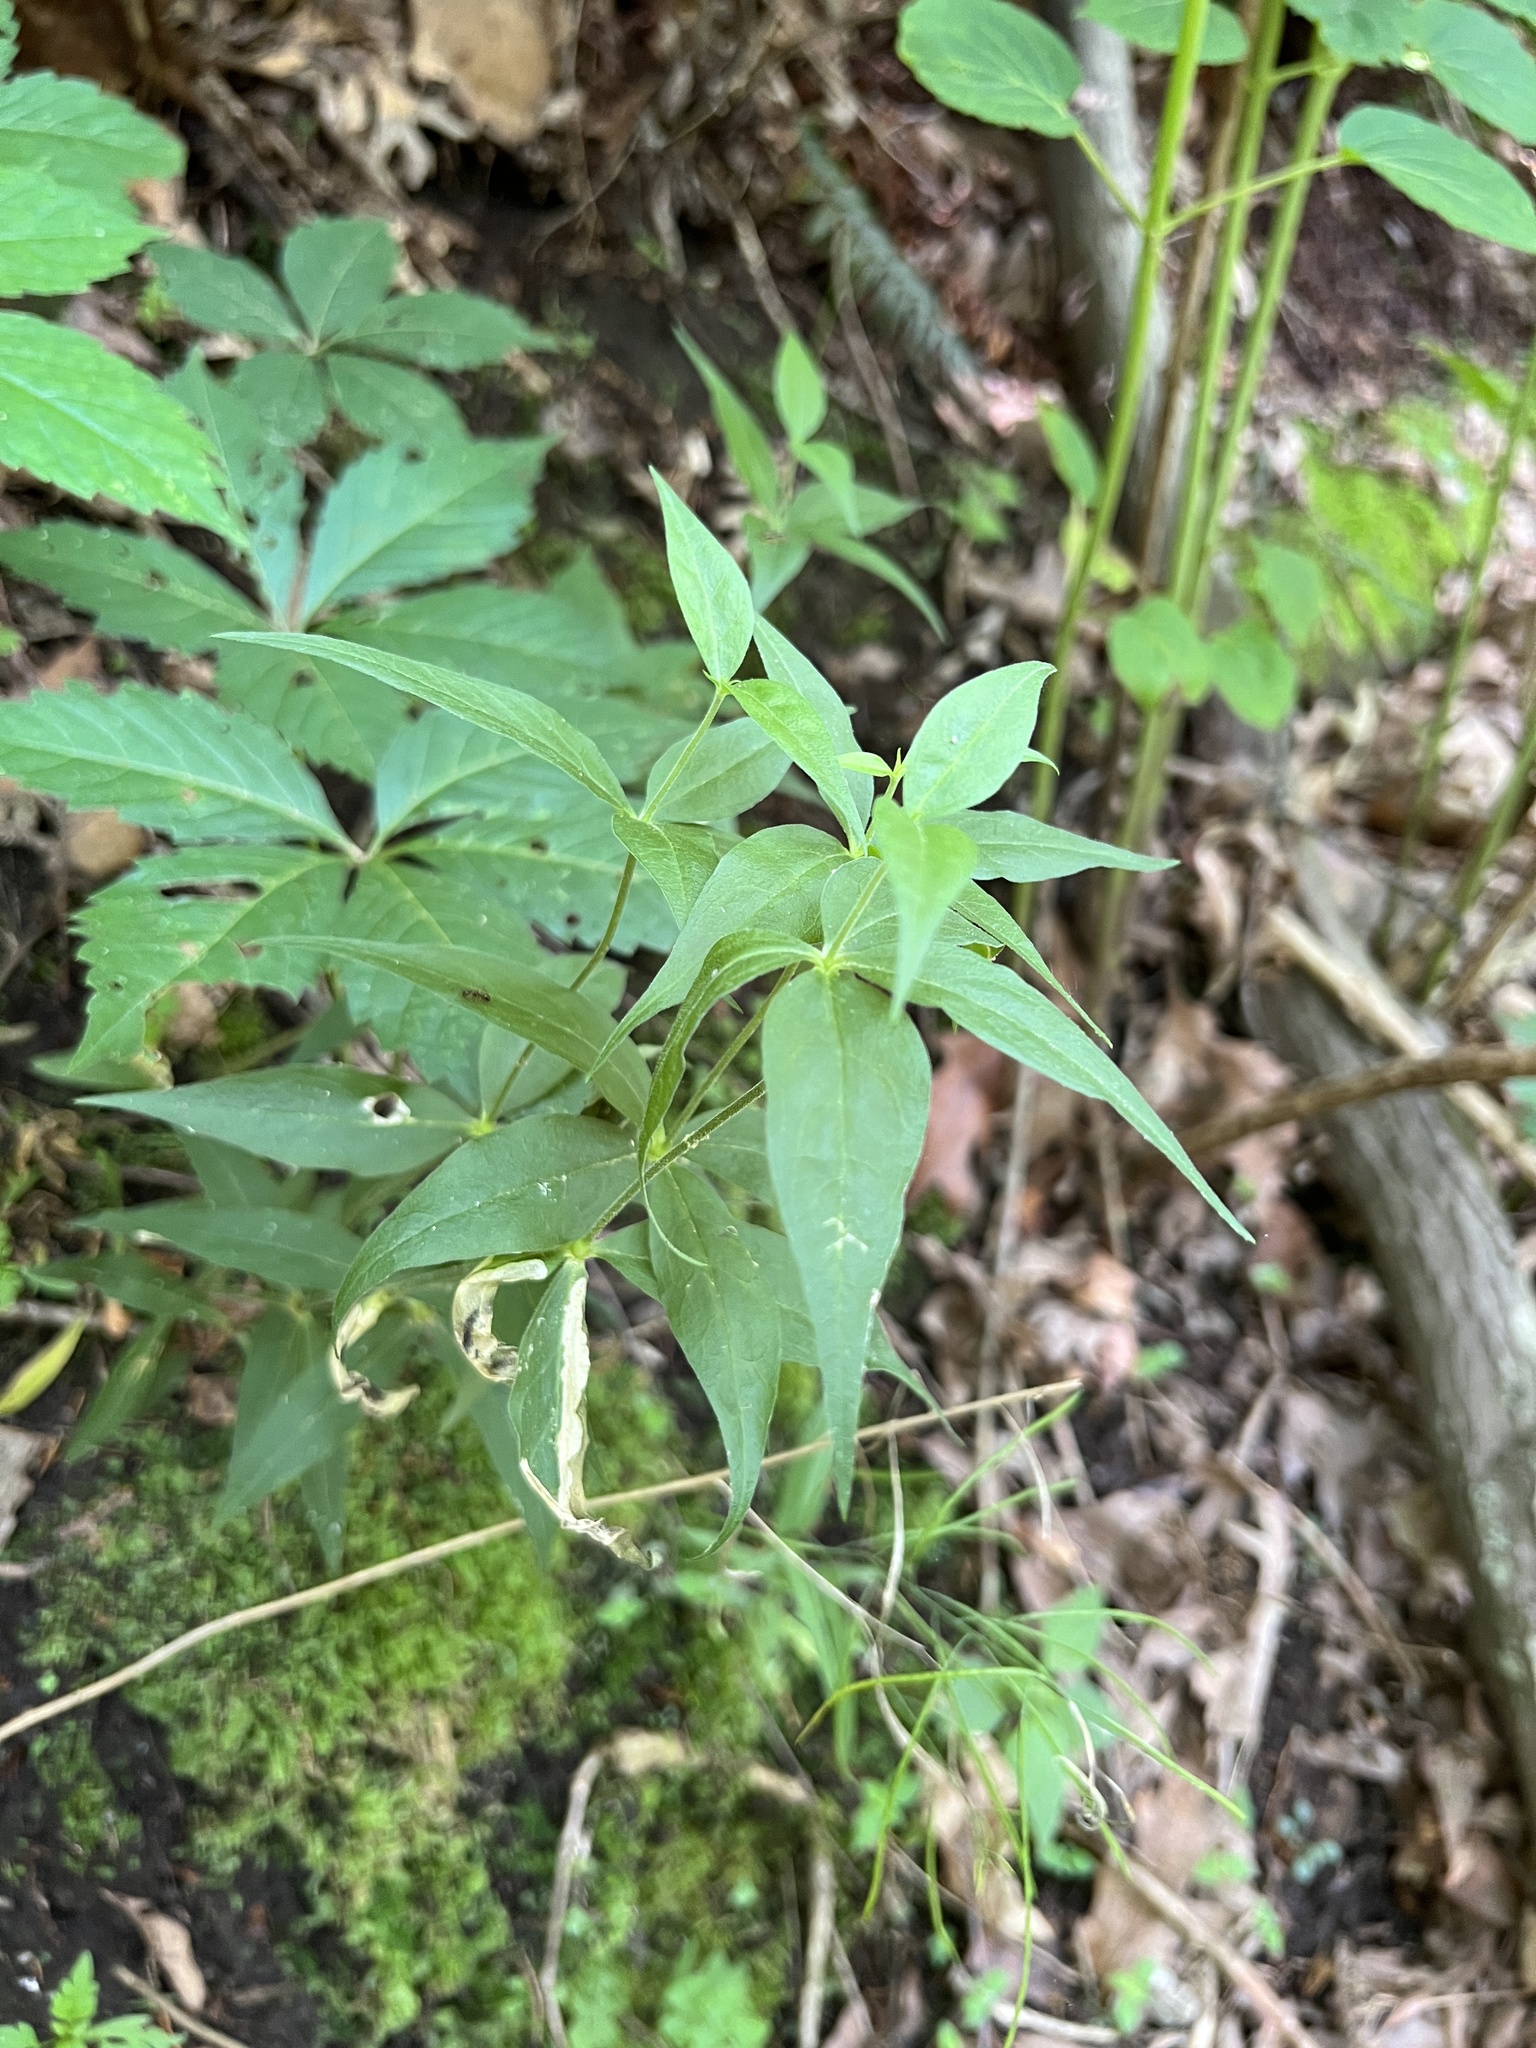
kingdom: Plantae
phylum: Tracheophyta
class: Magnoliopsida
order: Caryophyllales
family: Caryophyllaceae
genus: Silene
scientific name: Silene stellata
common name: Starry campion
